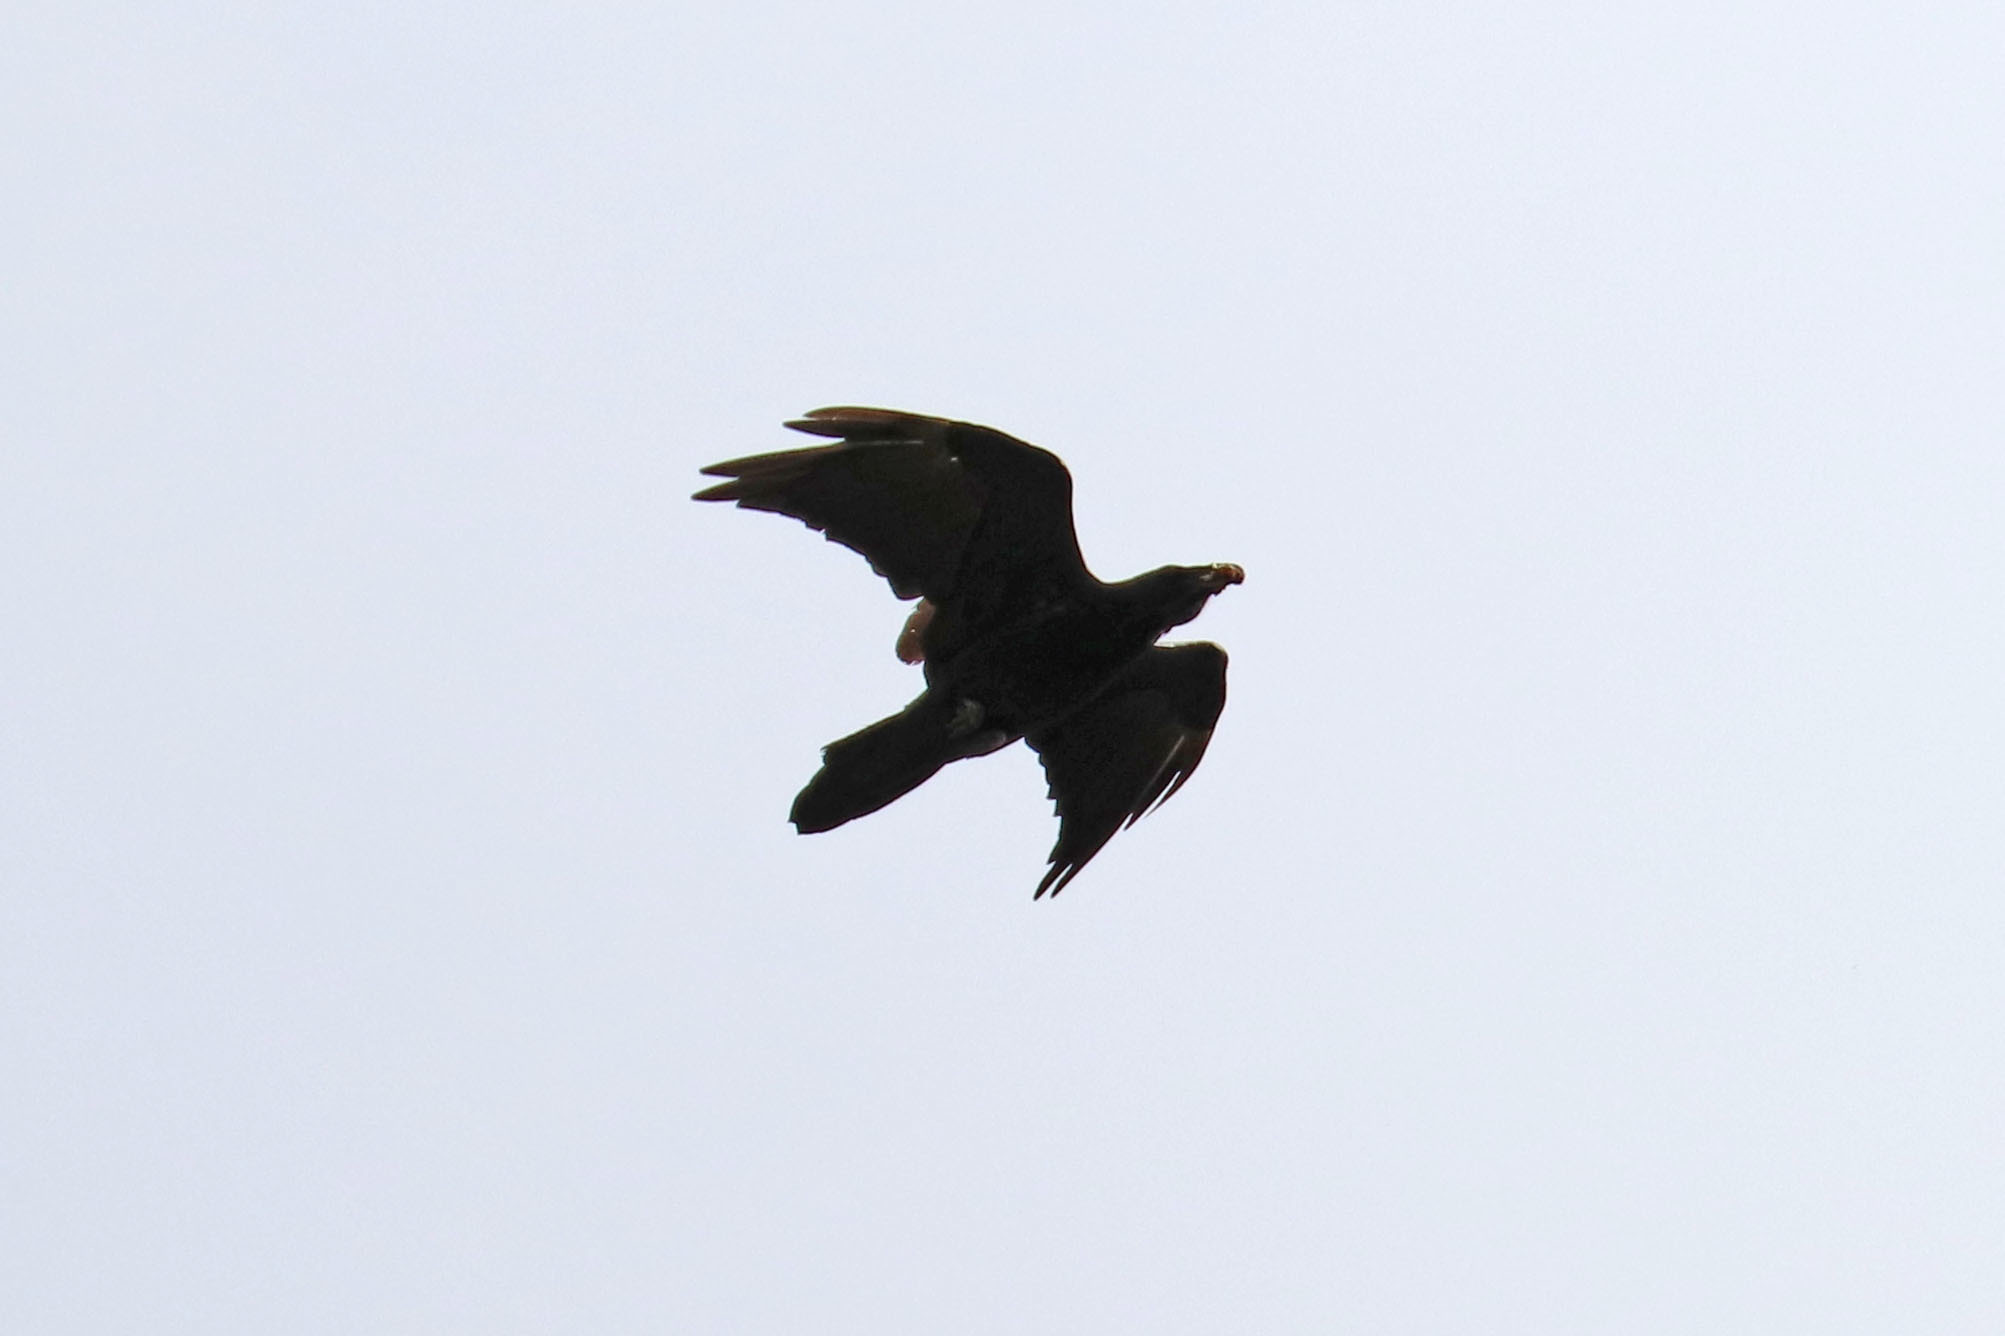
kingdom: Animalia
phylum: Chordata
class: Aves
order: Passeriformes
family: Corvidae
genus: Corvus
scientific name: Corvus corax
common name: Common raven
